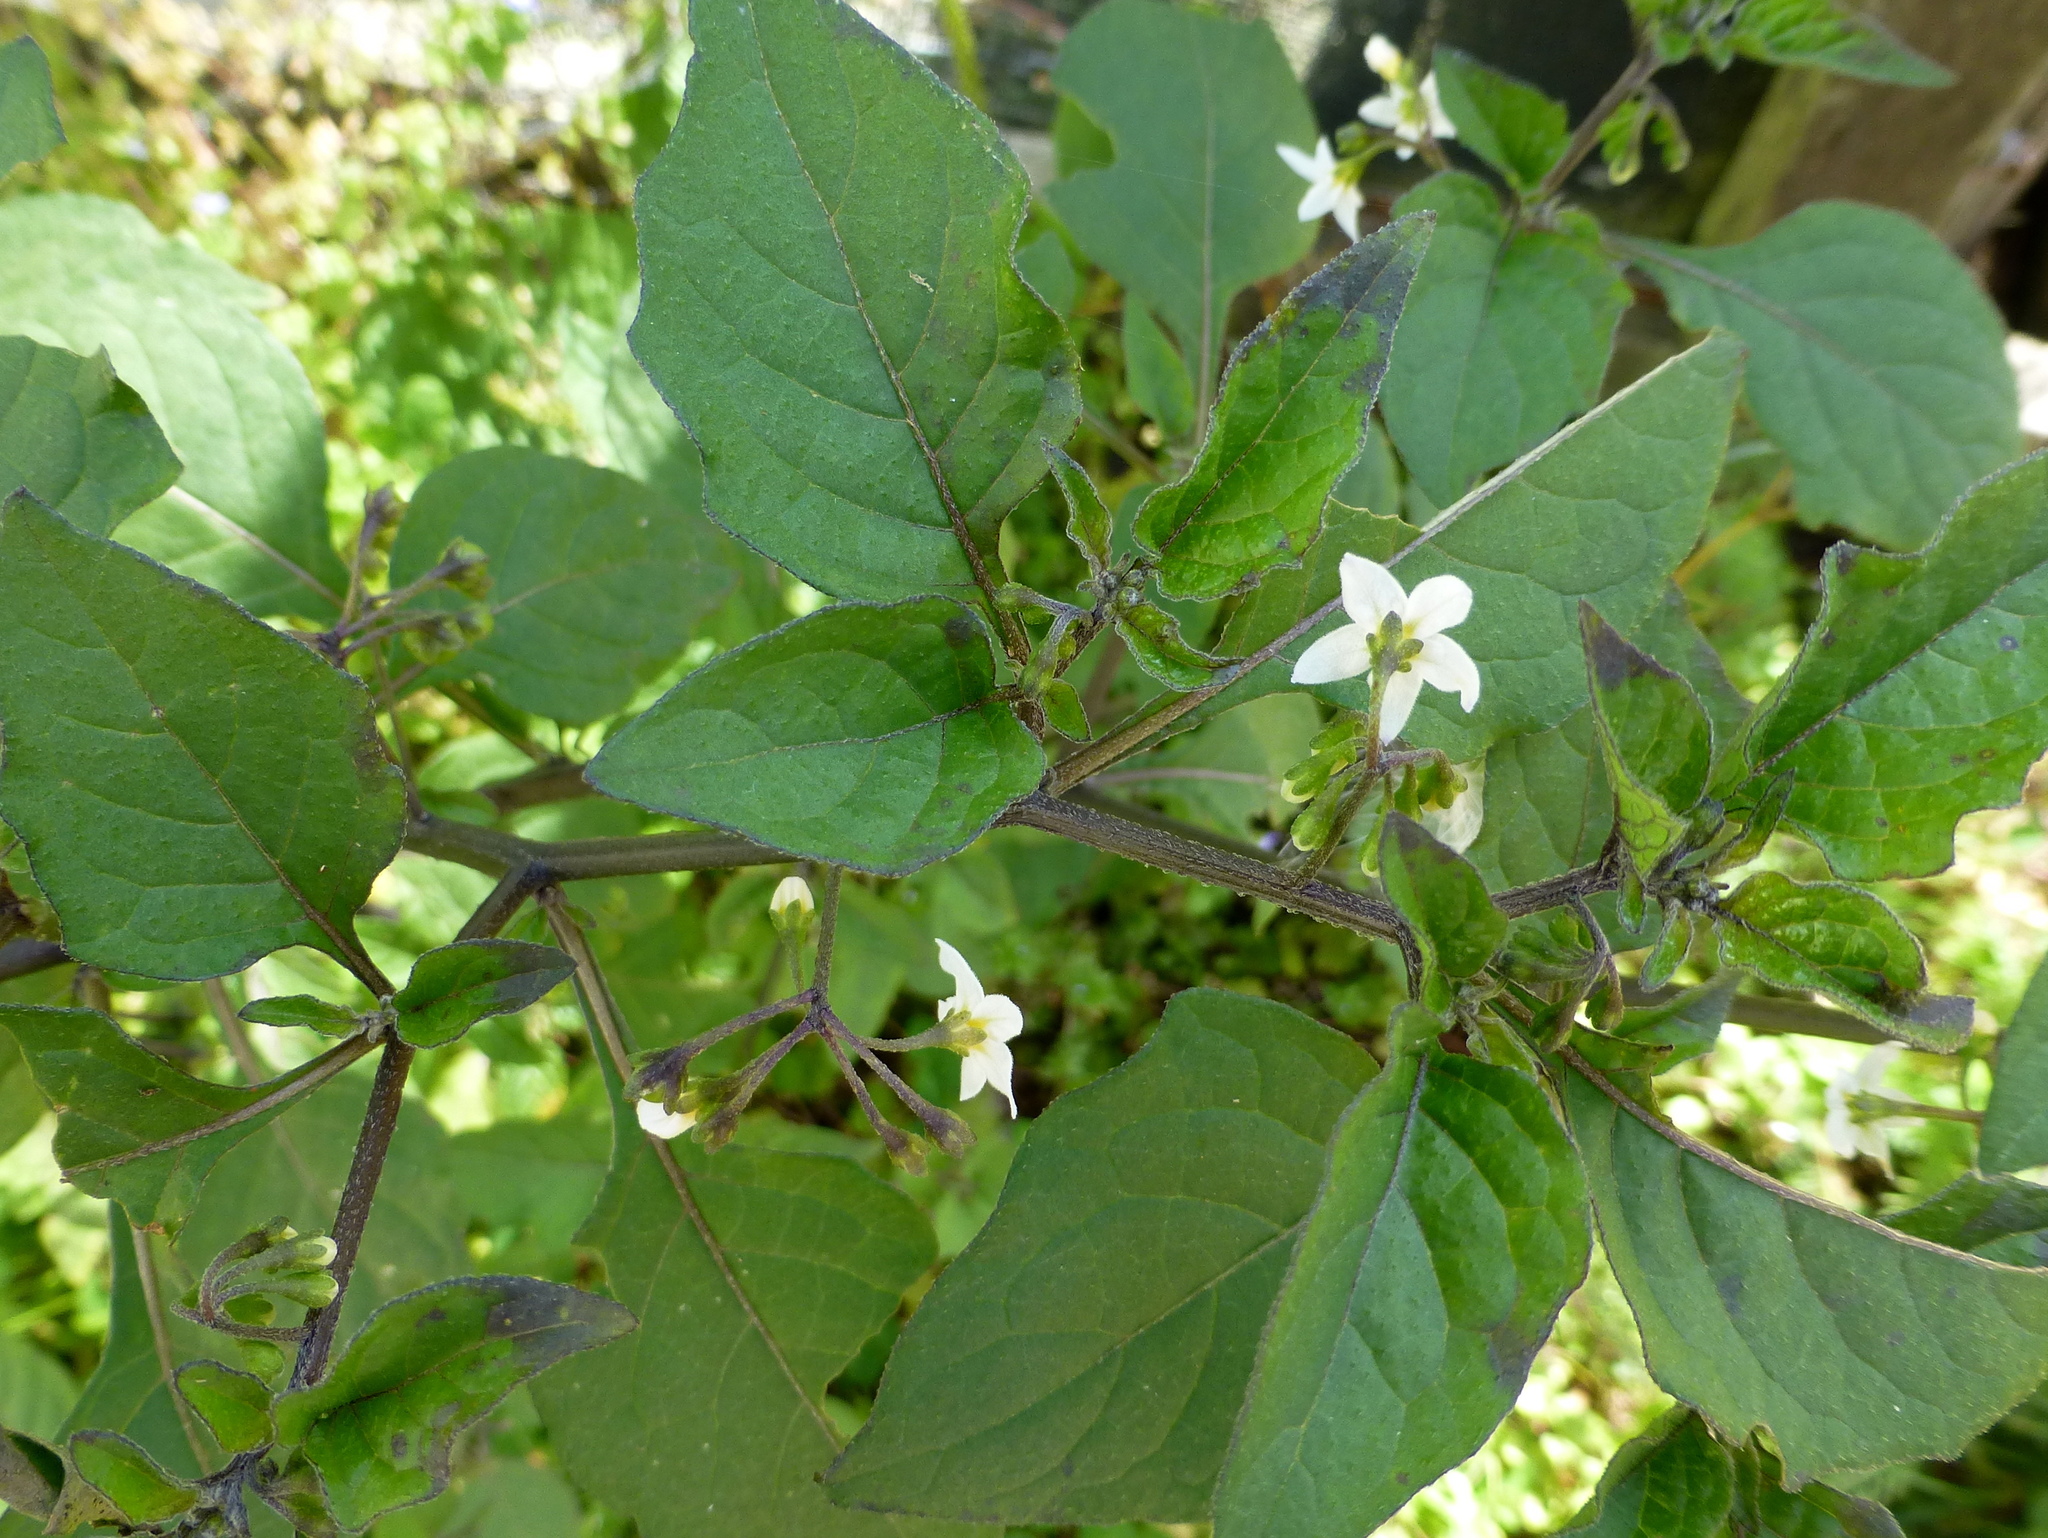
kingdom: Plantae
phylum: Tracheophyta
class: Magnoliopsida
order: Solanales
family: Solanaceae
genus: Solanum
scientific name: Solanum nigrum
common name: Black nightshade
